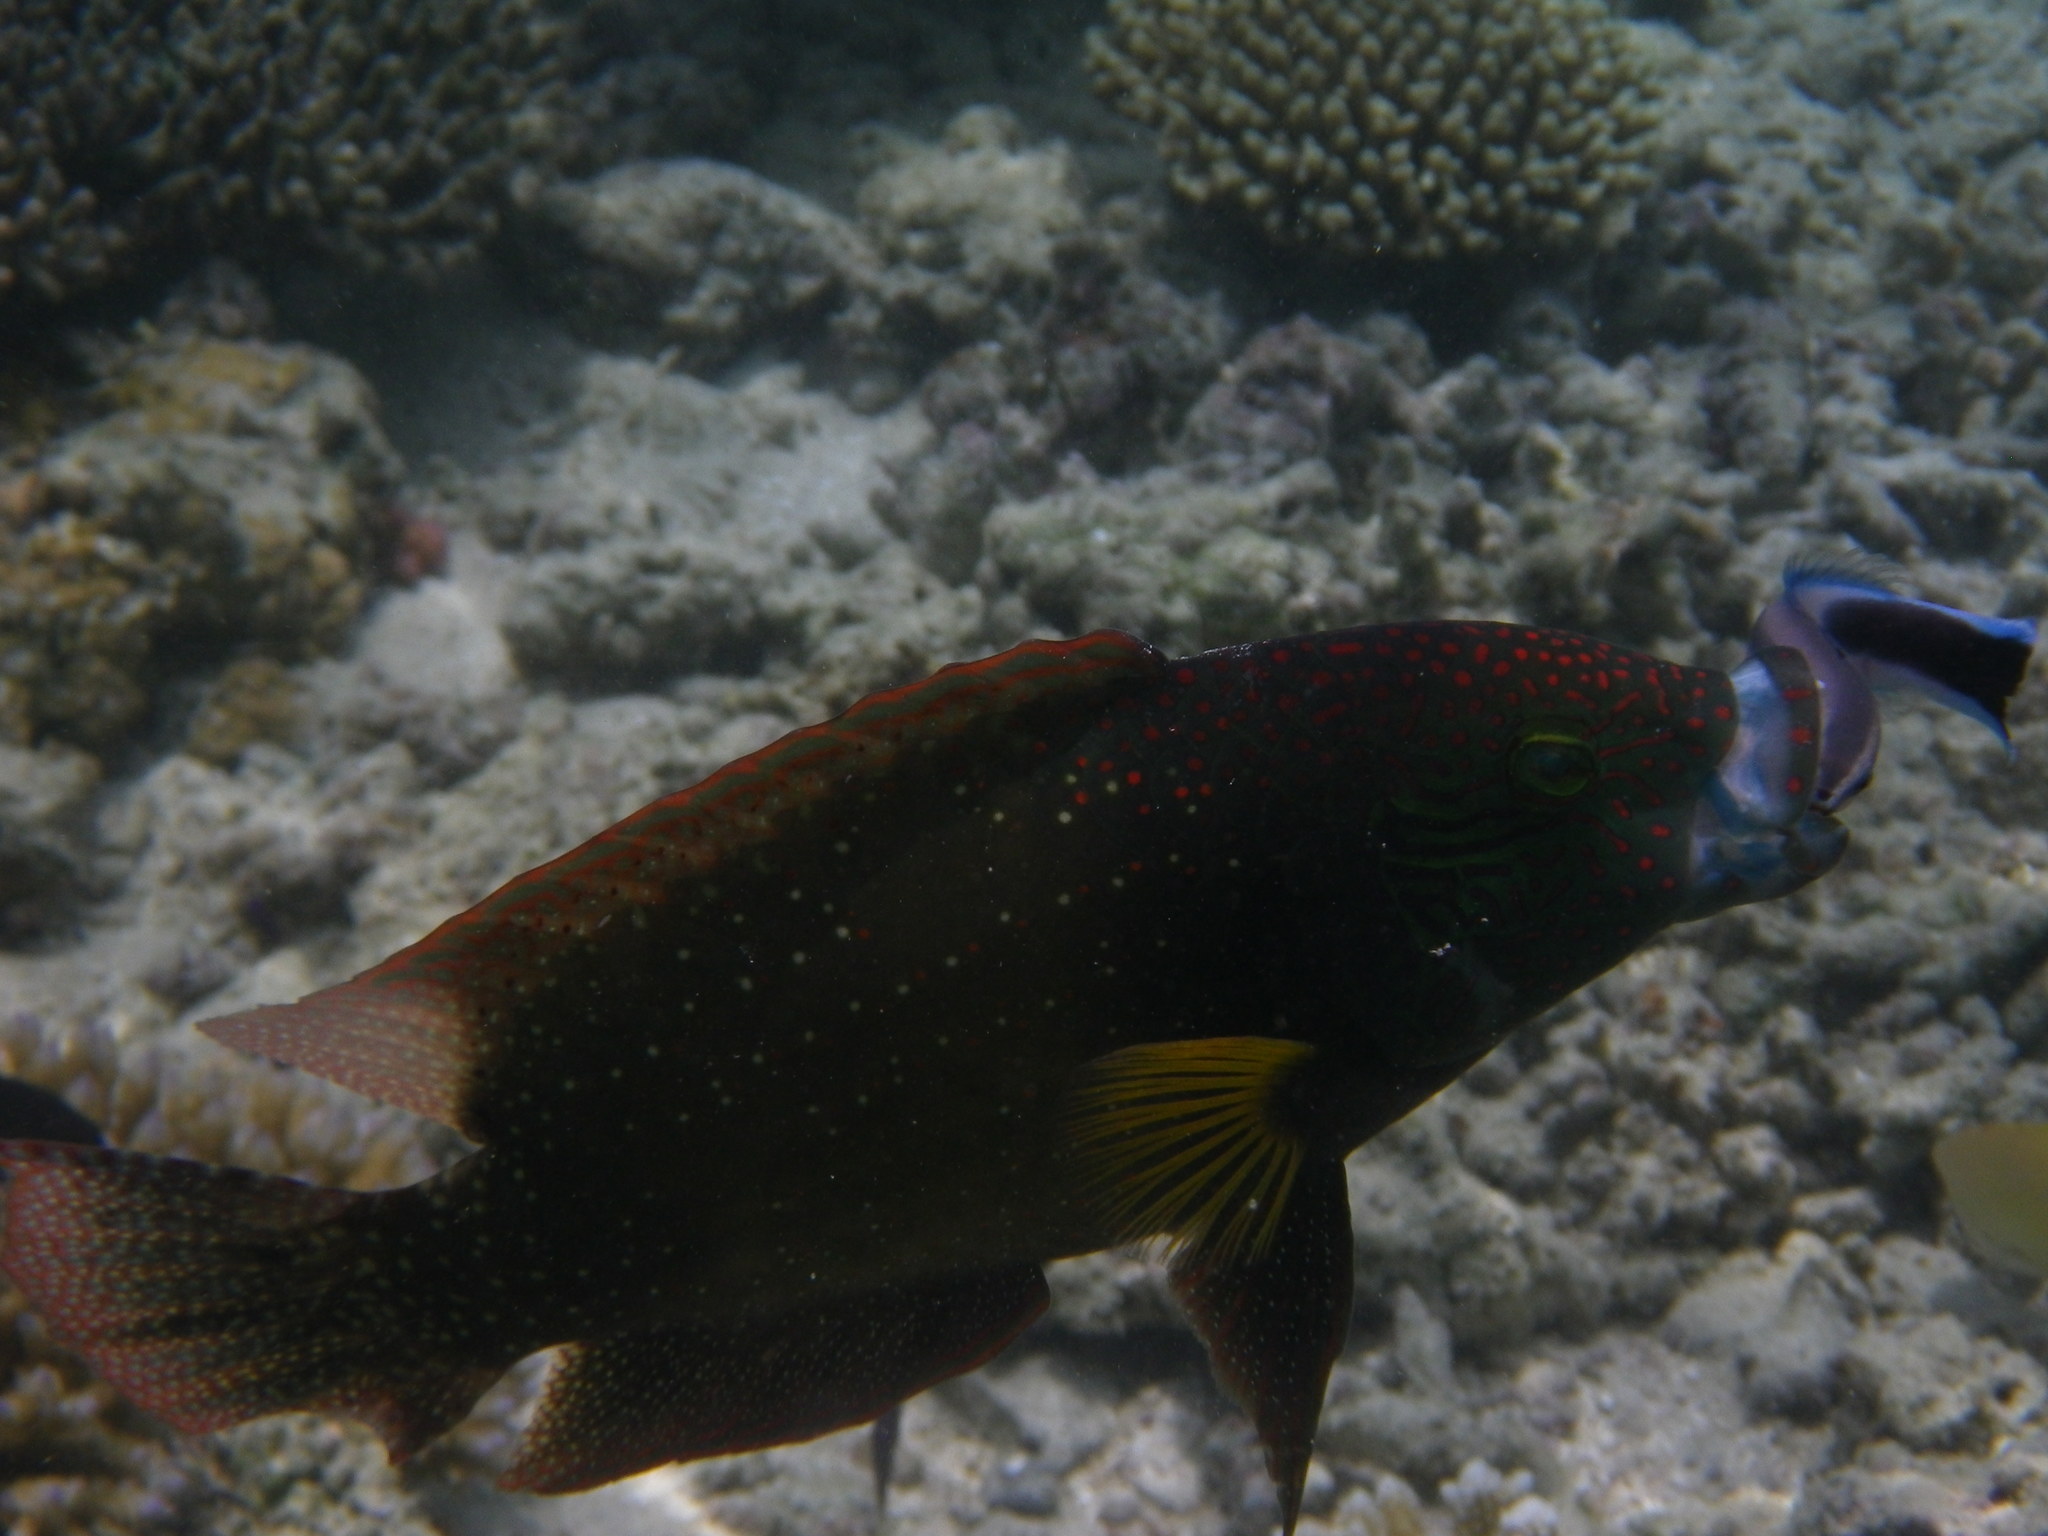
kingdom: Animalia
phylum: Chordata
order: Perciformes
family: Labridae
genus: Cheilinus
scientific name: Cheilinus chlorourus
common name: Floral wrasse
